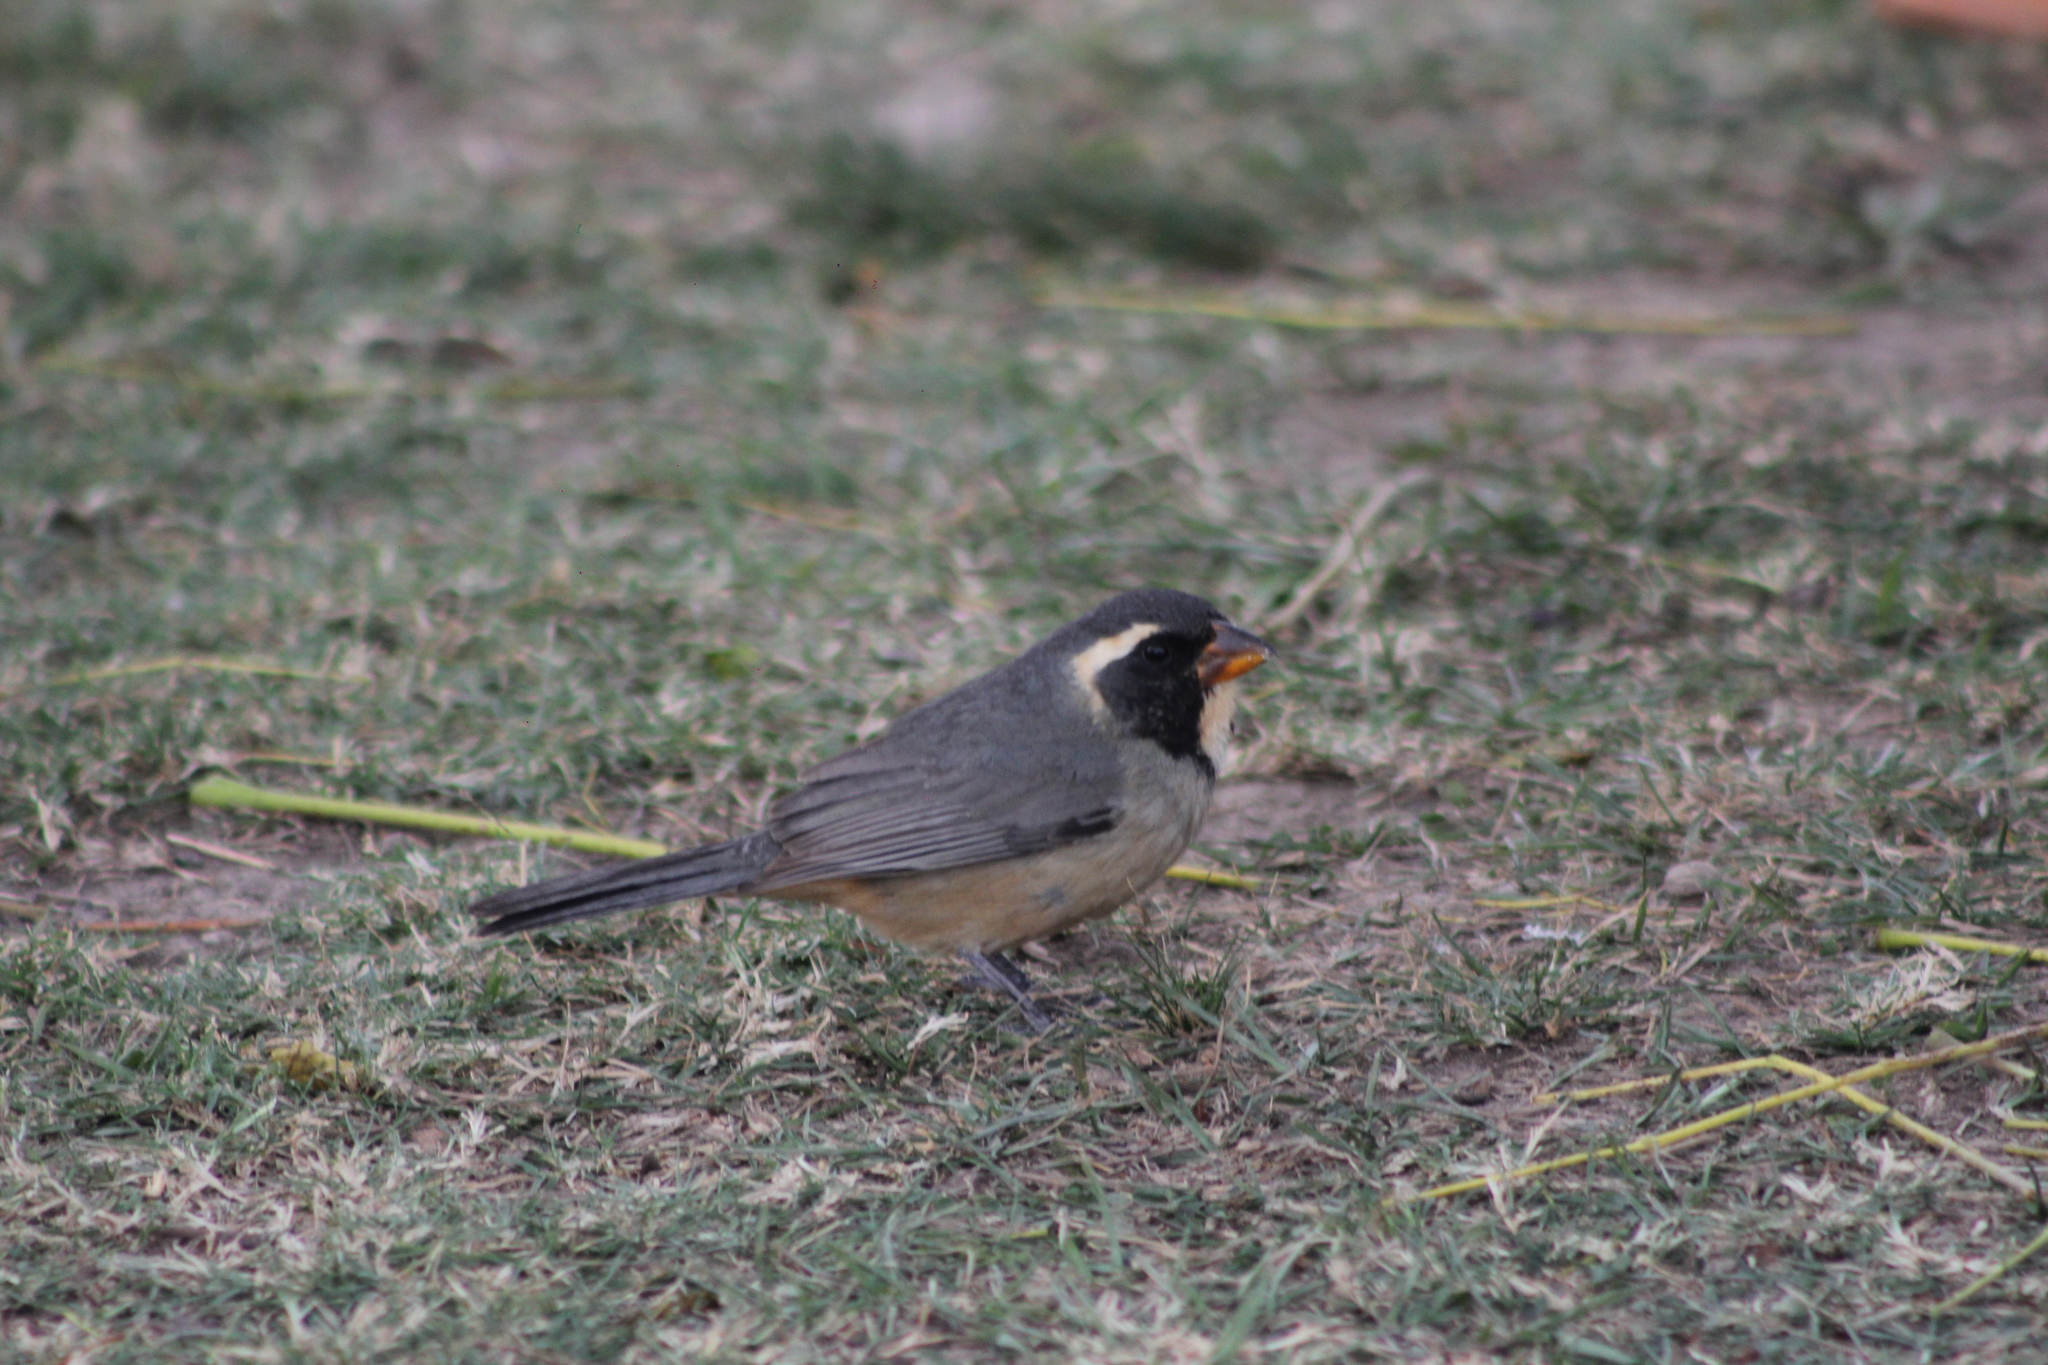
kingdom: Animalia
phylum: Chordata
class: Aves
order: Passeriformes
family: Thraupidae
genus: Saltator
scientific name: Saltator aurantiirostris
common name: Golden-billed saltator
